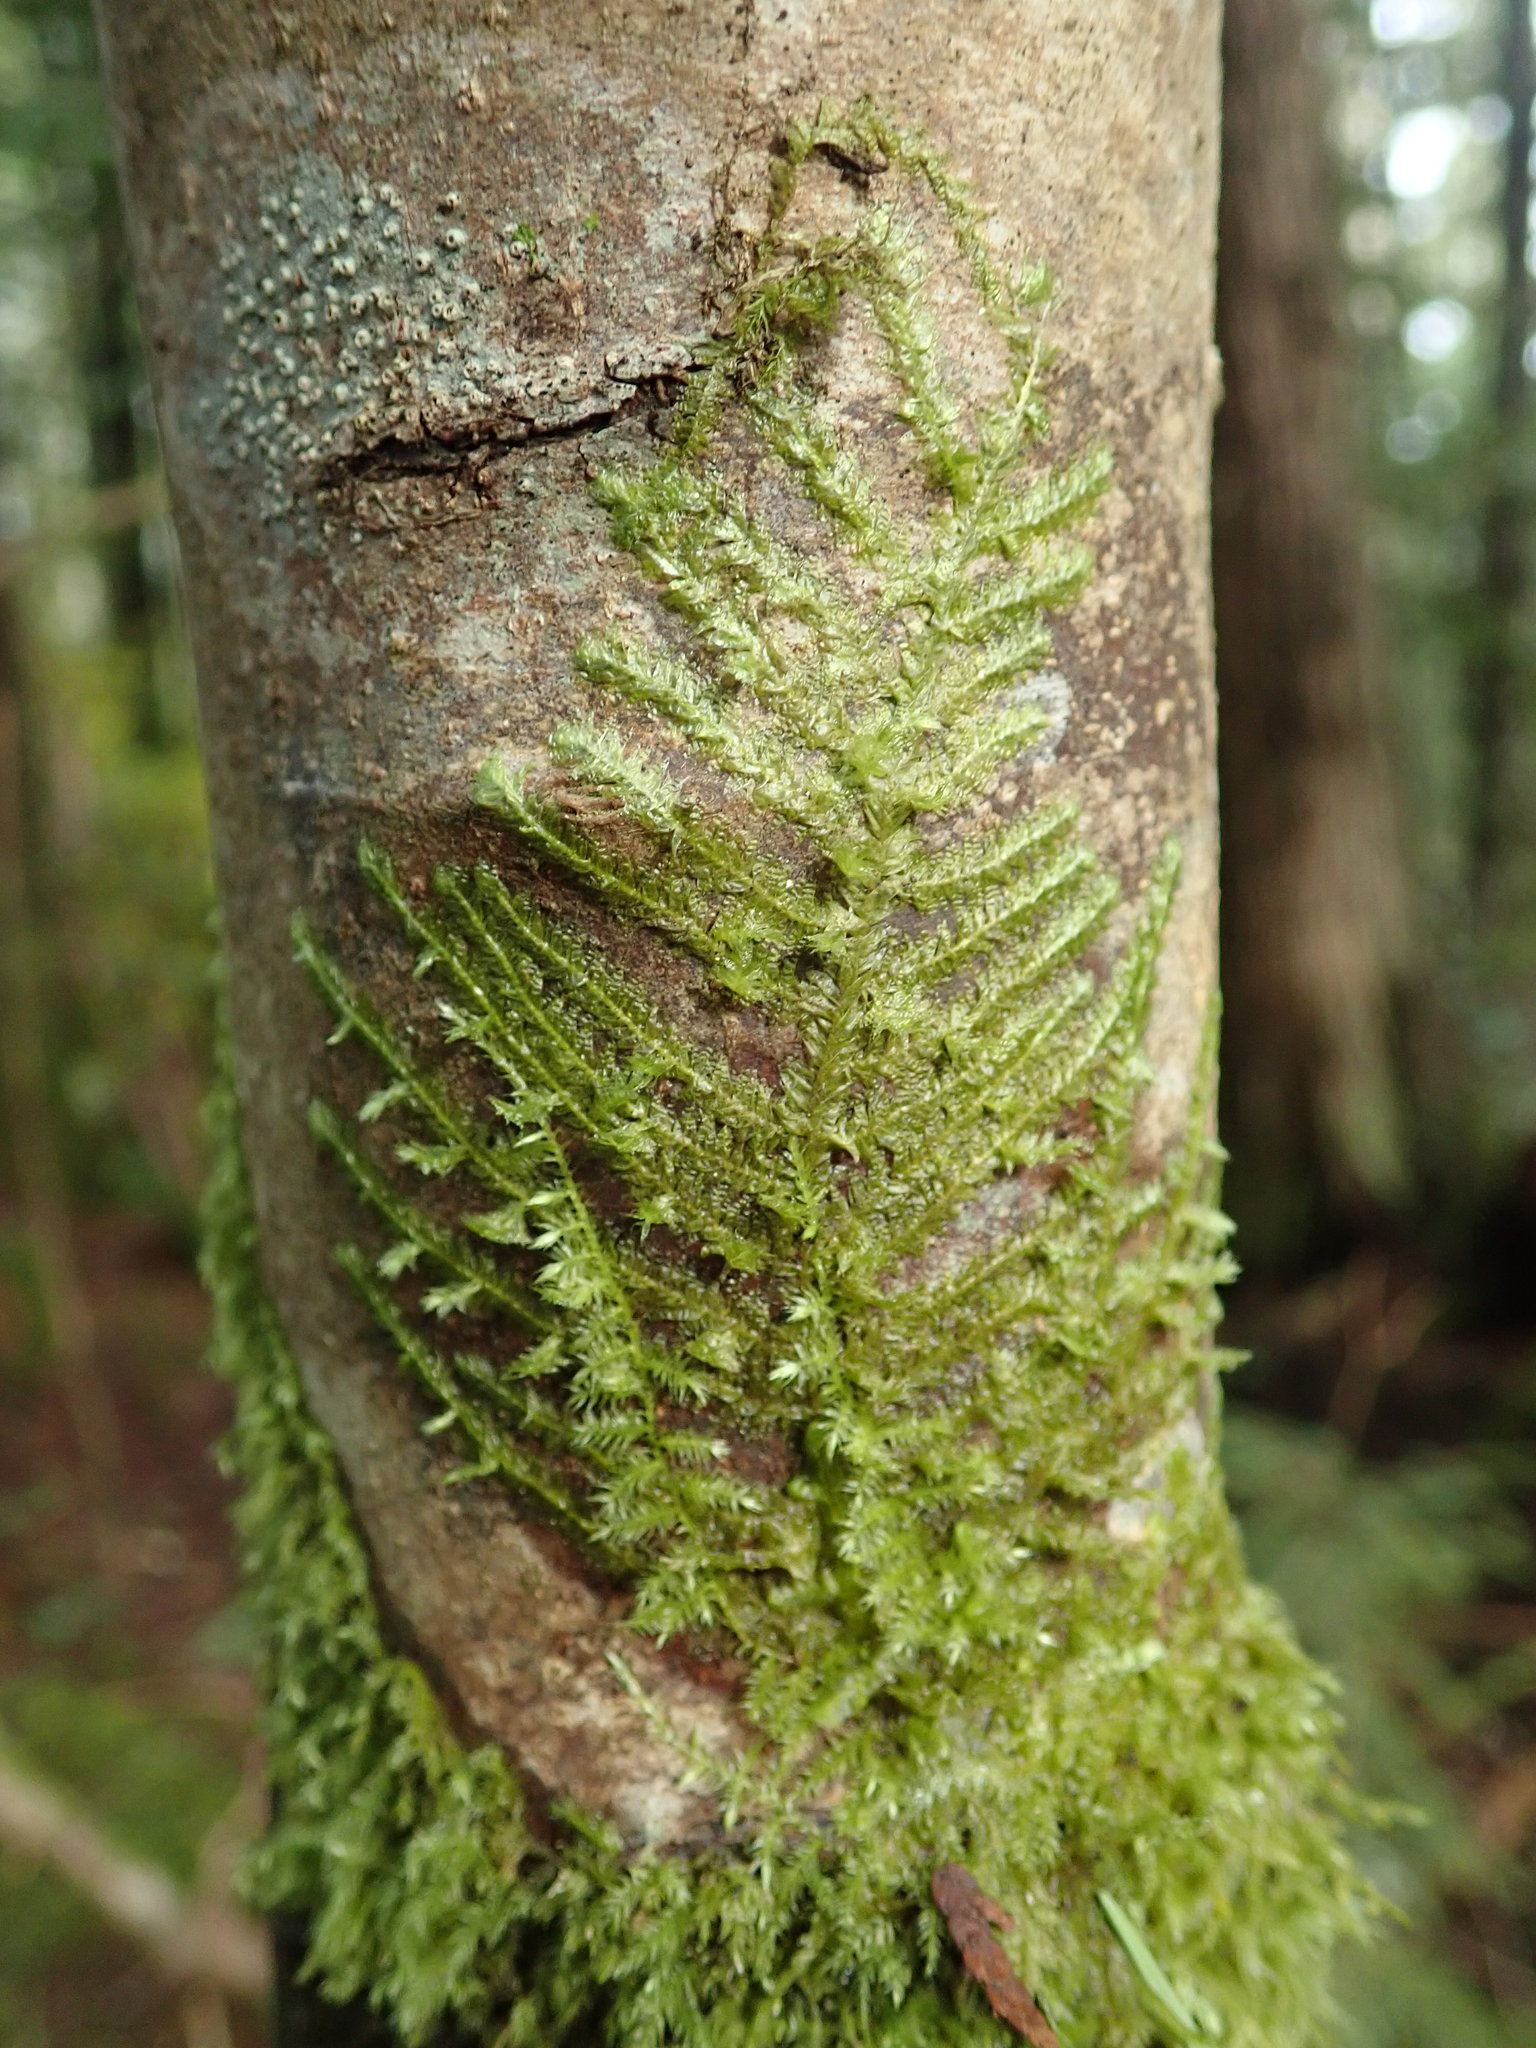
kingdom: Plantae
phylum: Bryophyta
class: Bryopsida
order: Hypnales
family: Neckeraceae
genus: Neckera
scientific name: Neckera douglasii
